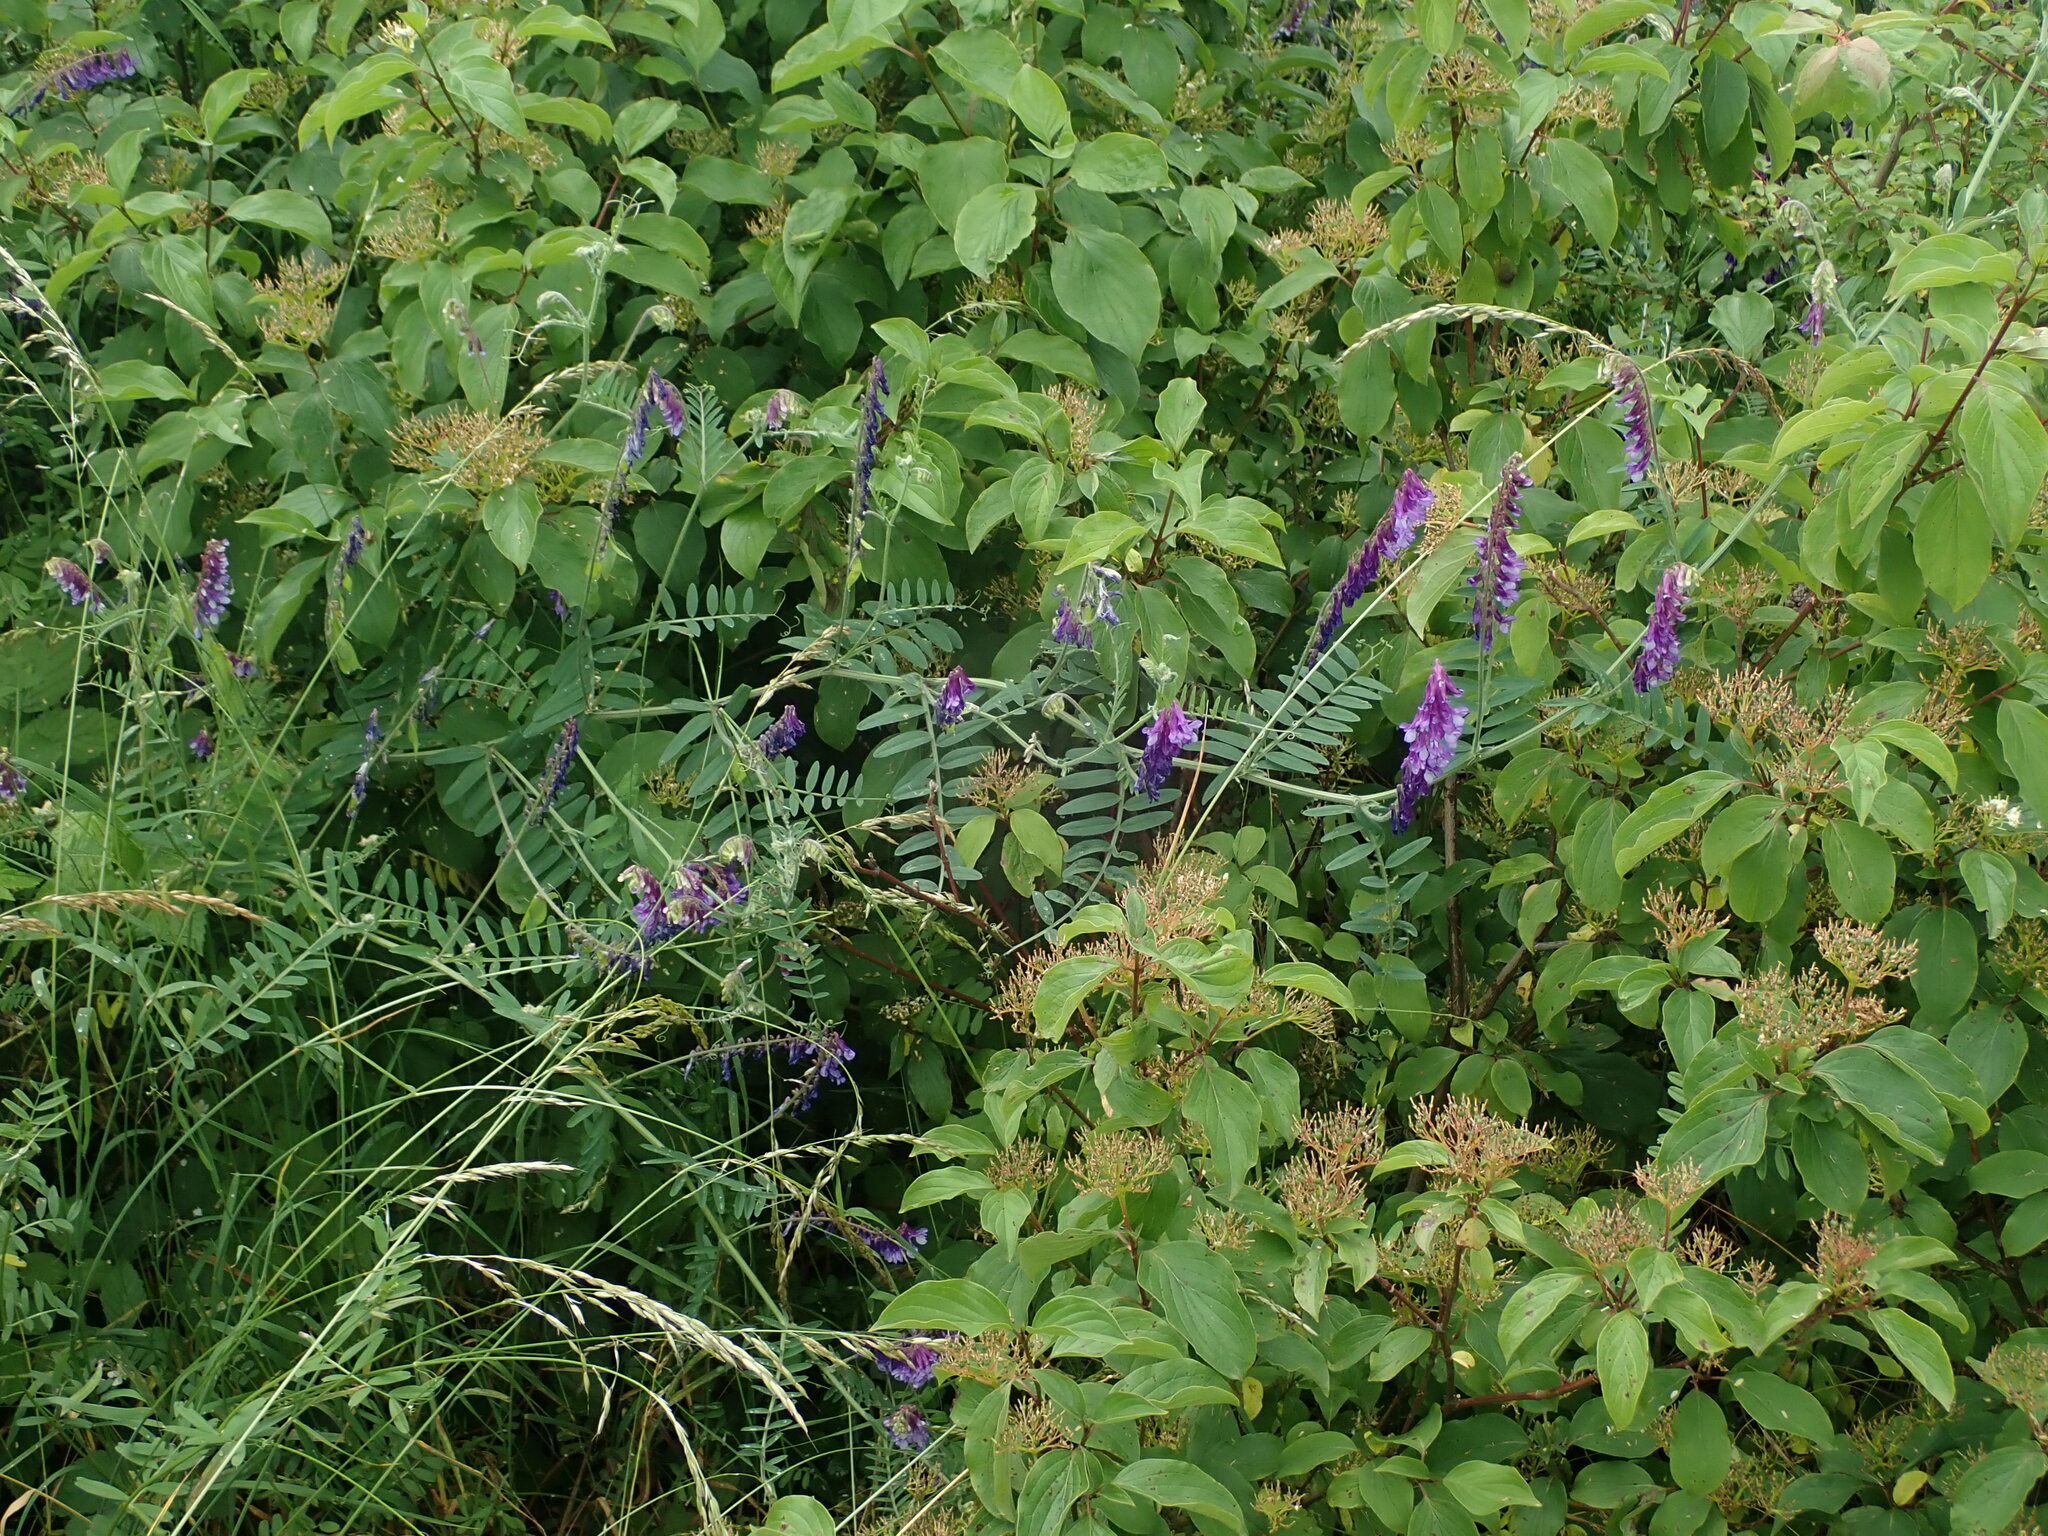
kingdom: Plantae
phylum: Tracheophyta
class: Magnoliopsida
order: Fabales
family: Fabaceae
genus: Vicia
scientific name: Vicia villosa
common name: Fodder vetch
